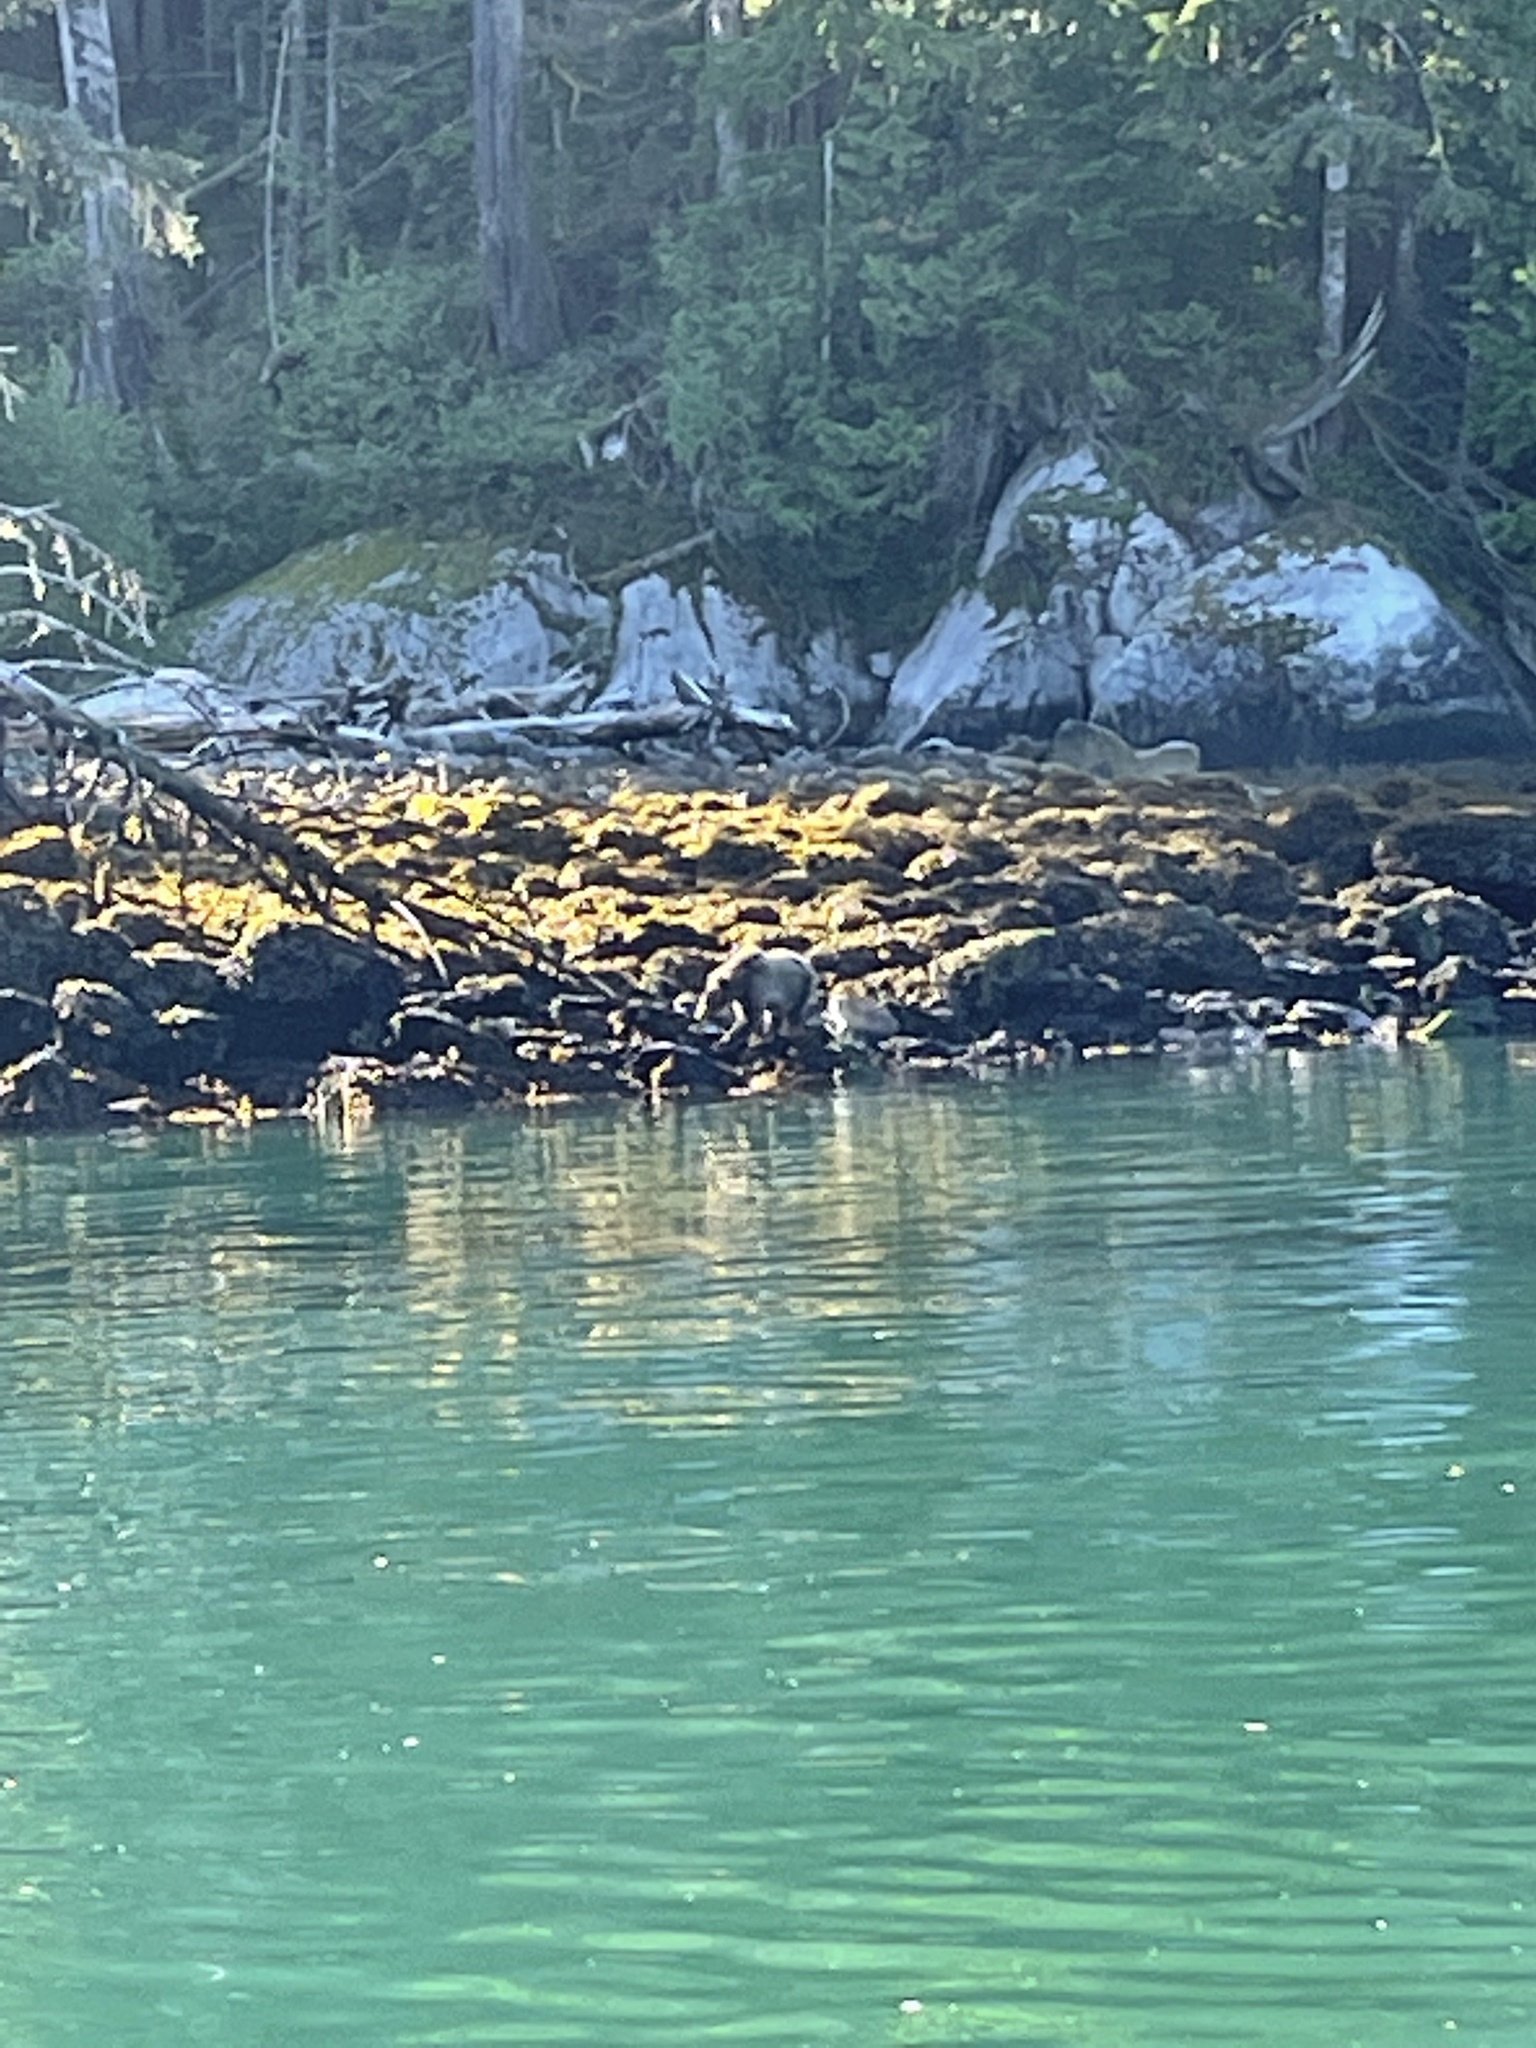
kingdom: Animalia
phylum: Chordata
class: Mammalia
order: Carnivora
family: Ursidae
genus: Ursus
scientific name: Ursus arctos
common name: Brown bear
